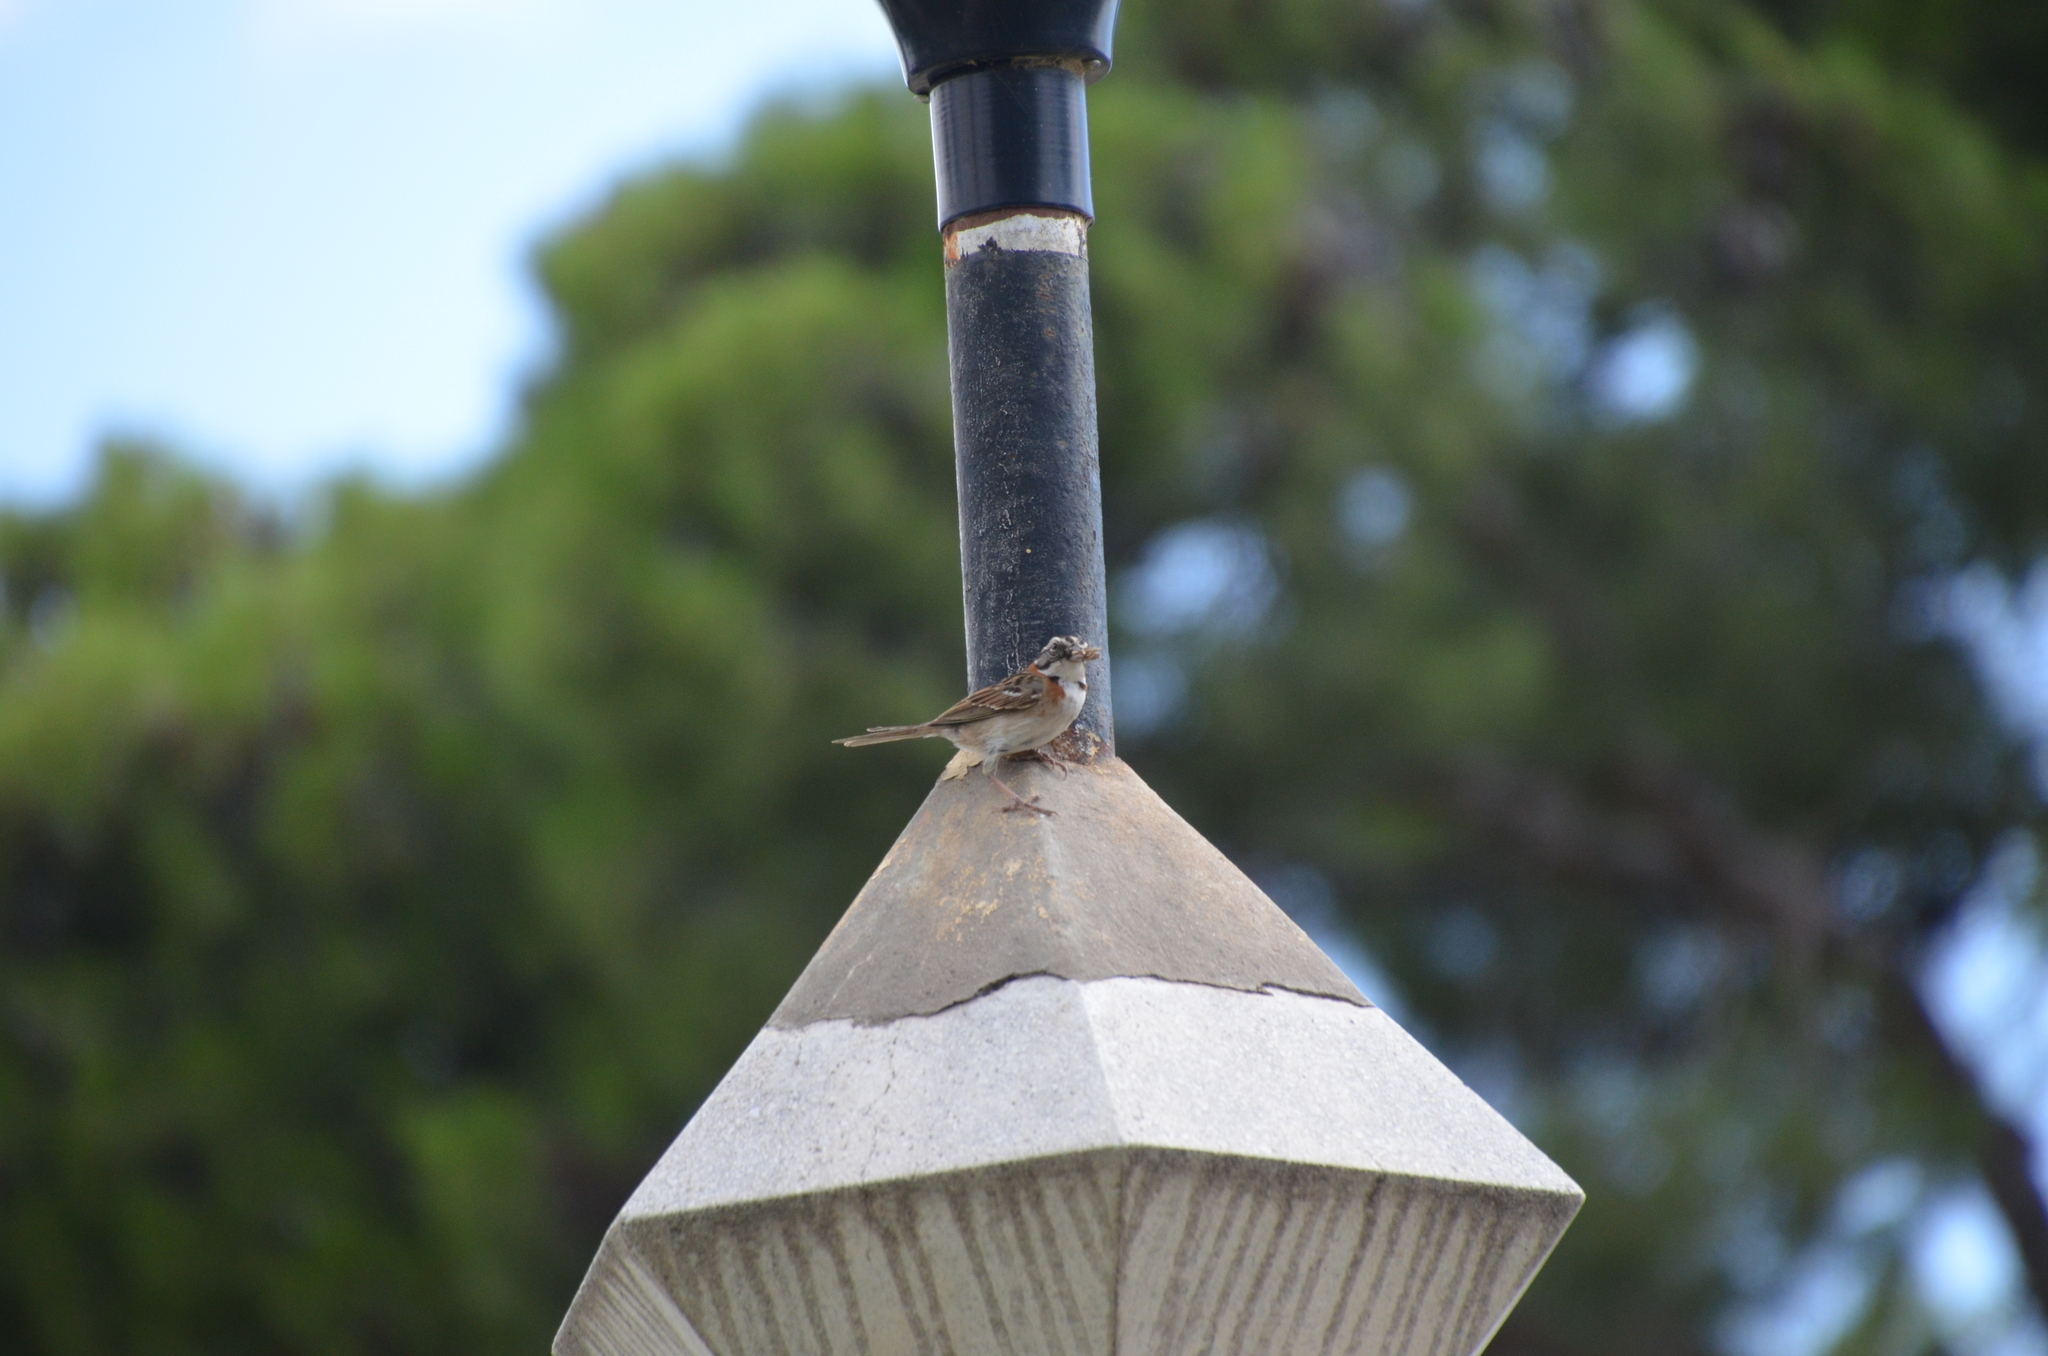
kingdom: Animalia
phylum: Chordata
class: Aves
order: Passeriformes
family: Passerellidae
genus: Zonotrichia
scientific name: Zonotrichia capensis
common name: Rufous-collared sparrow
